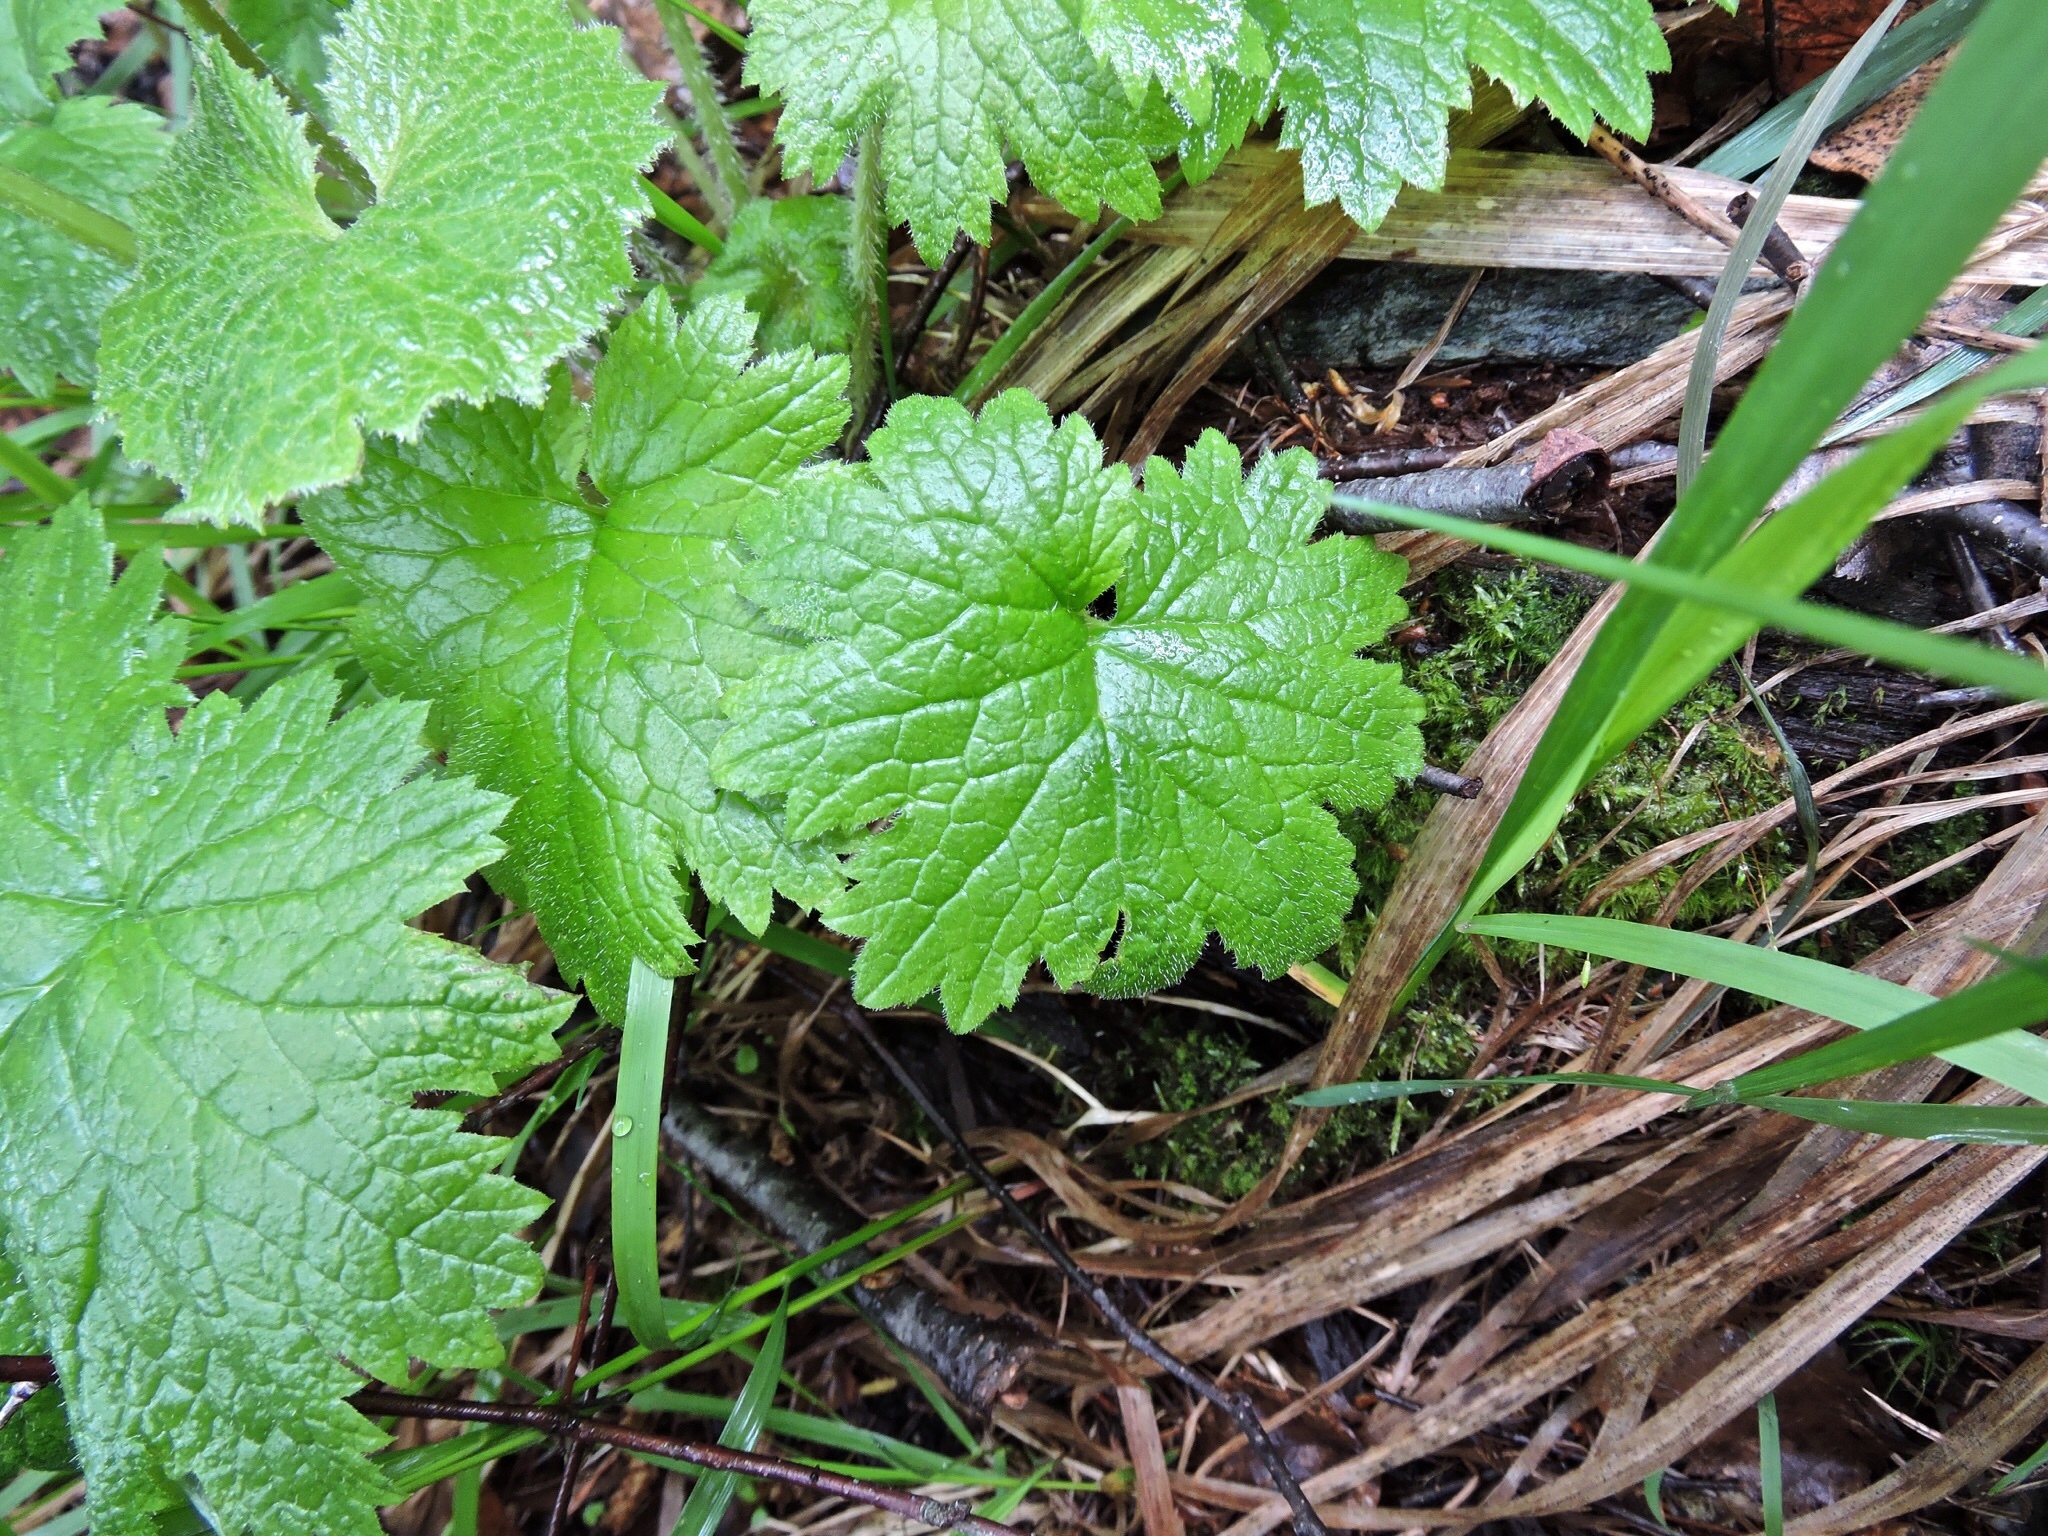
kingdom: Plantae
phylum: Tracheophyta
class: Magnoliopsida
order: Ericales
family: Primulaceae
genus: Primula
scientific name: Primula matthioli
